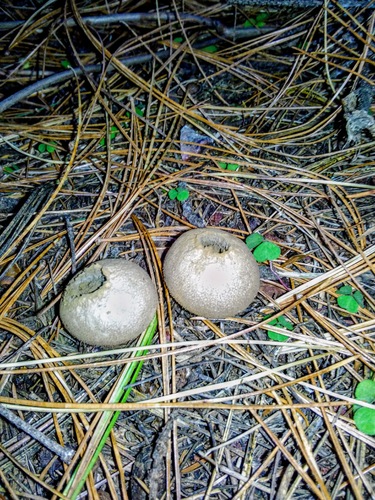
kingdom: Fungi
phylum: Basidiomycota
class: Agaricomycetes
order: Agaricales
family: Lycoperdaceae
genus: Lycoperdon
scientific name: Lycoperdon perlatum
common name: Common puffball
